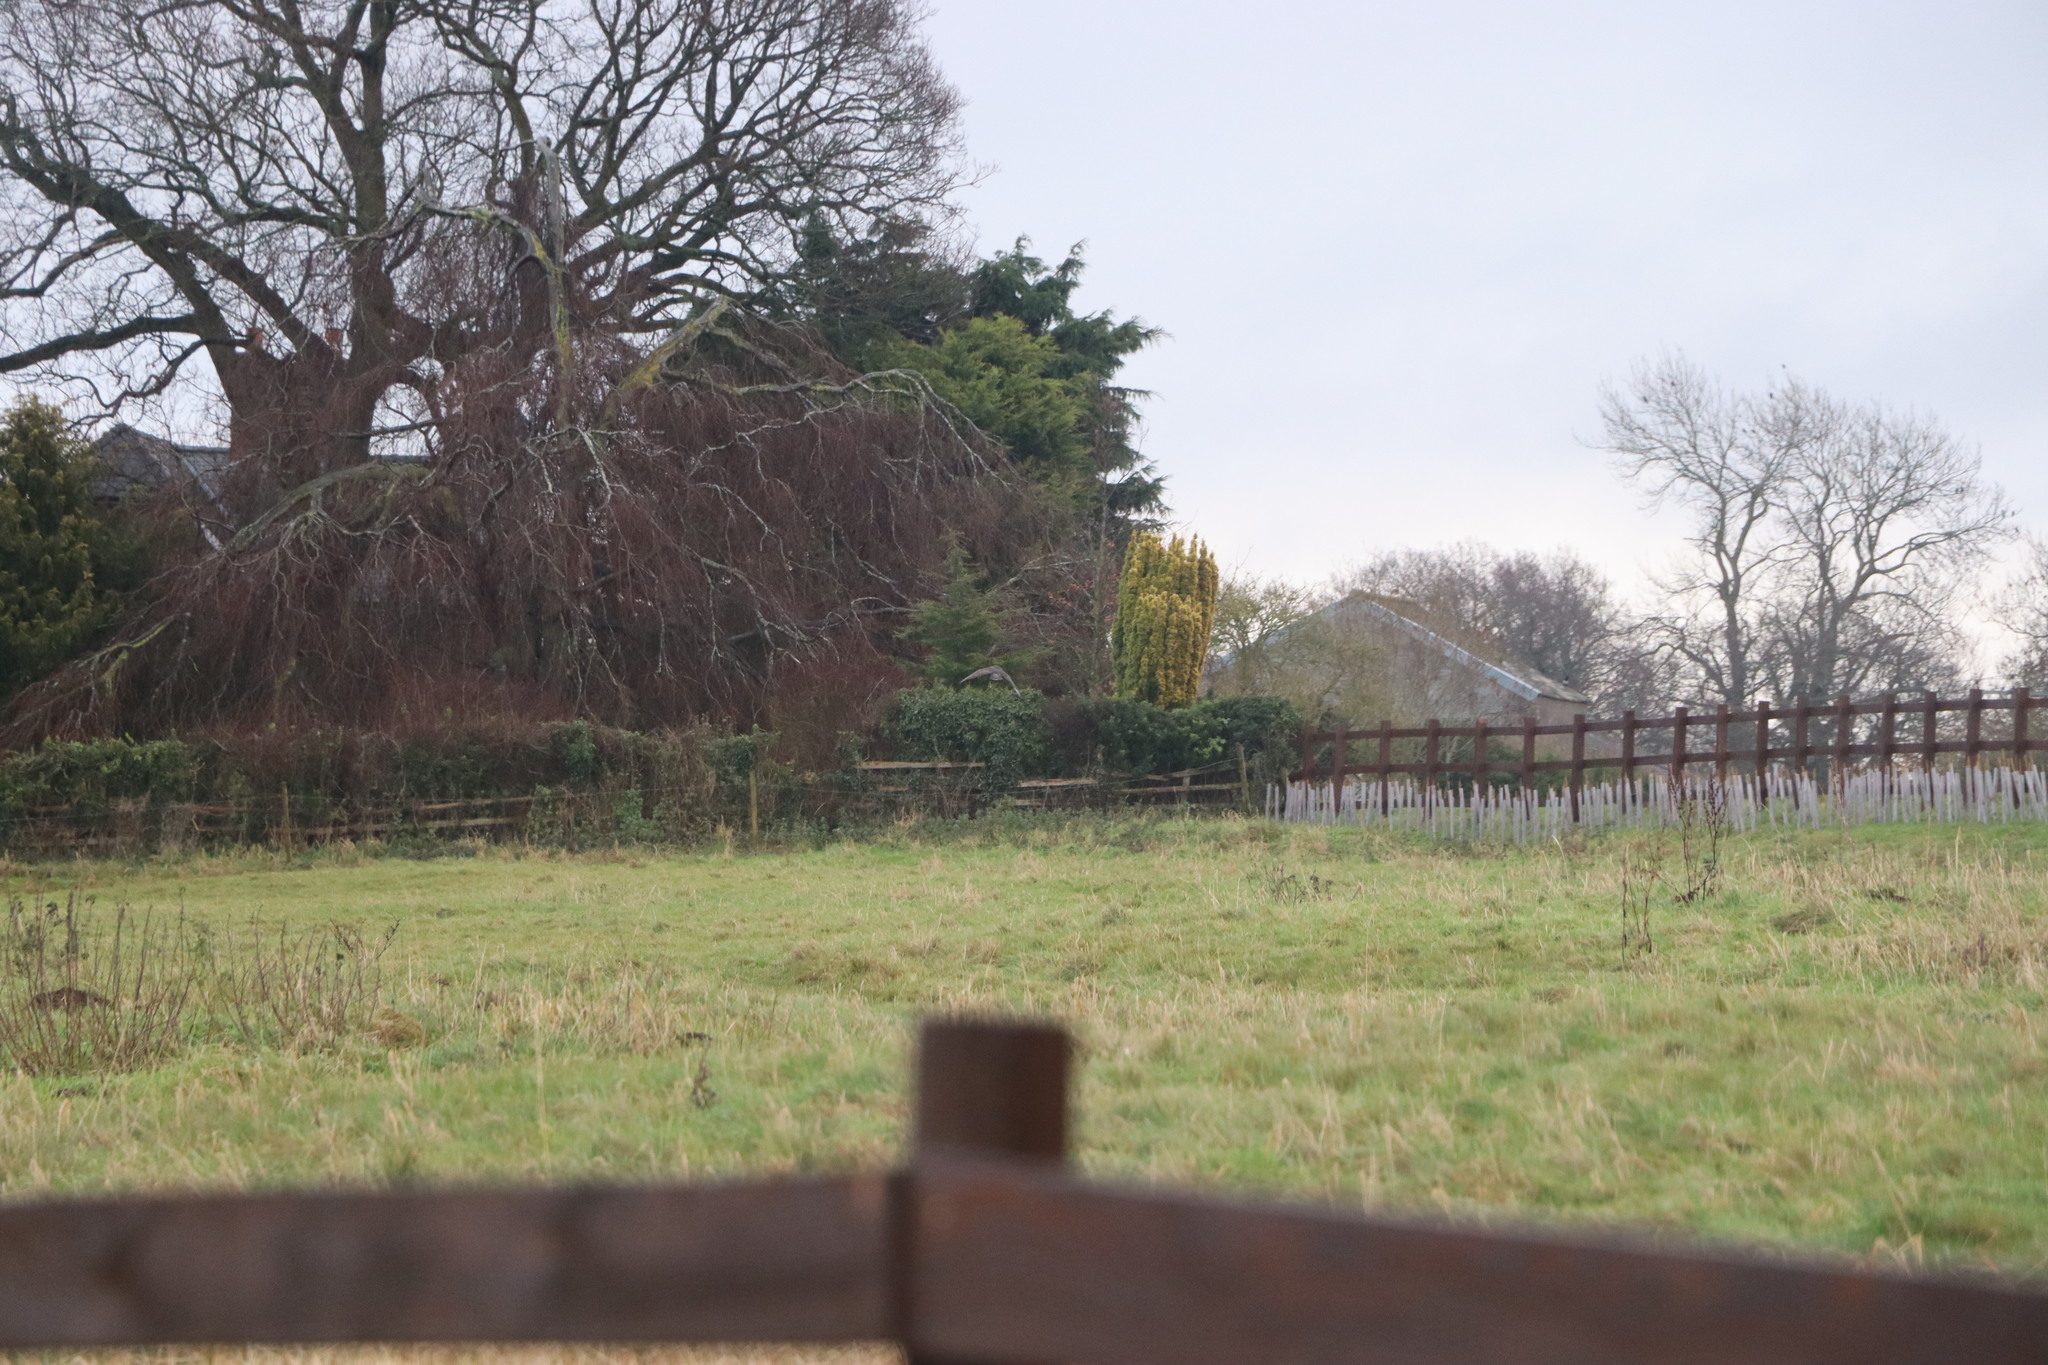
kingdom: Animalia
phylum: Chordata
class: Aves
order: Accipitriformes
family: Accipitridae
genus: Buteo
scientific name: Buteo buteo
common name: Common buzzard
